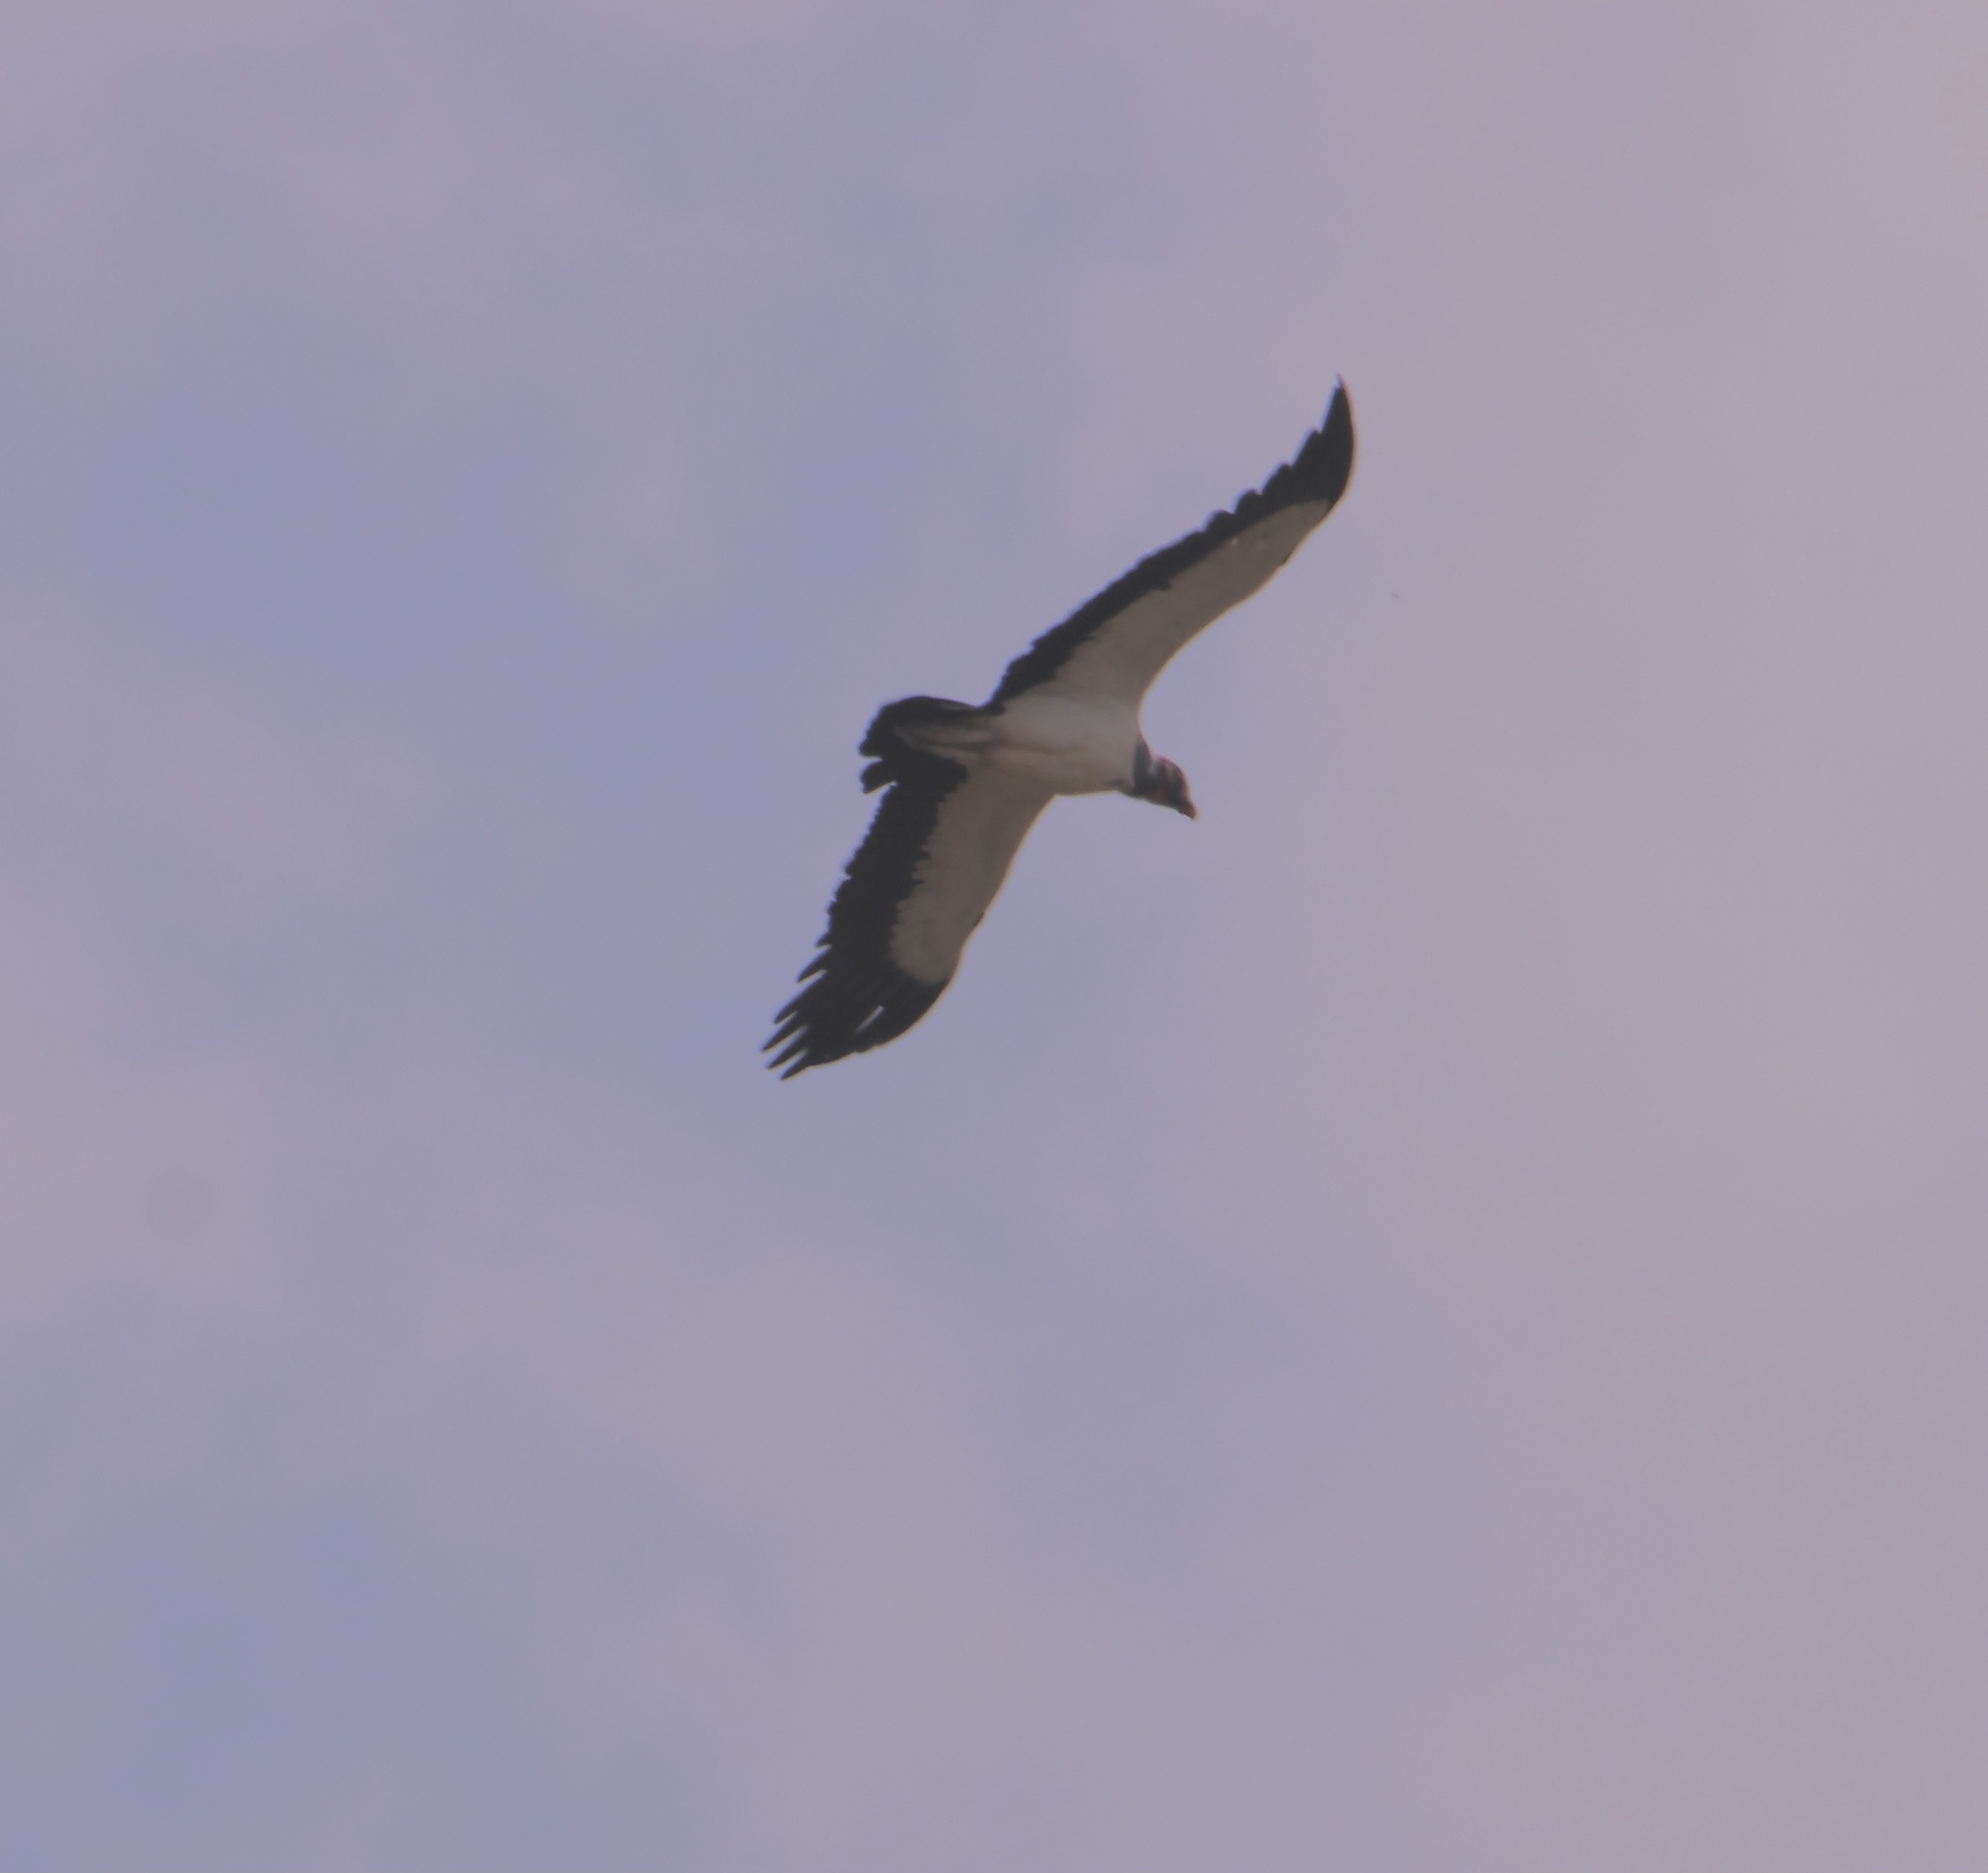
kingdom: Animalia
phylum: Chordata
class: Aves
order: Accipitriformes
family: Cathartidae
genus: Sarcoramphus
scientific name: Sarcoramphus papa
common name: King vulture
